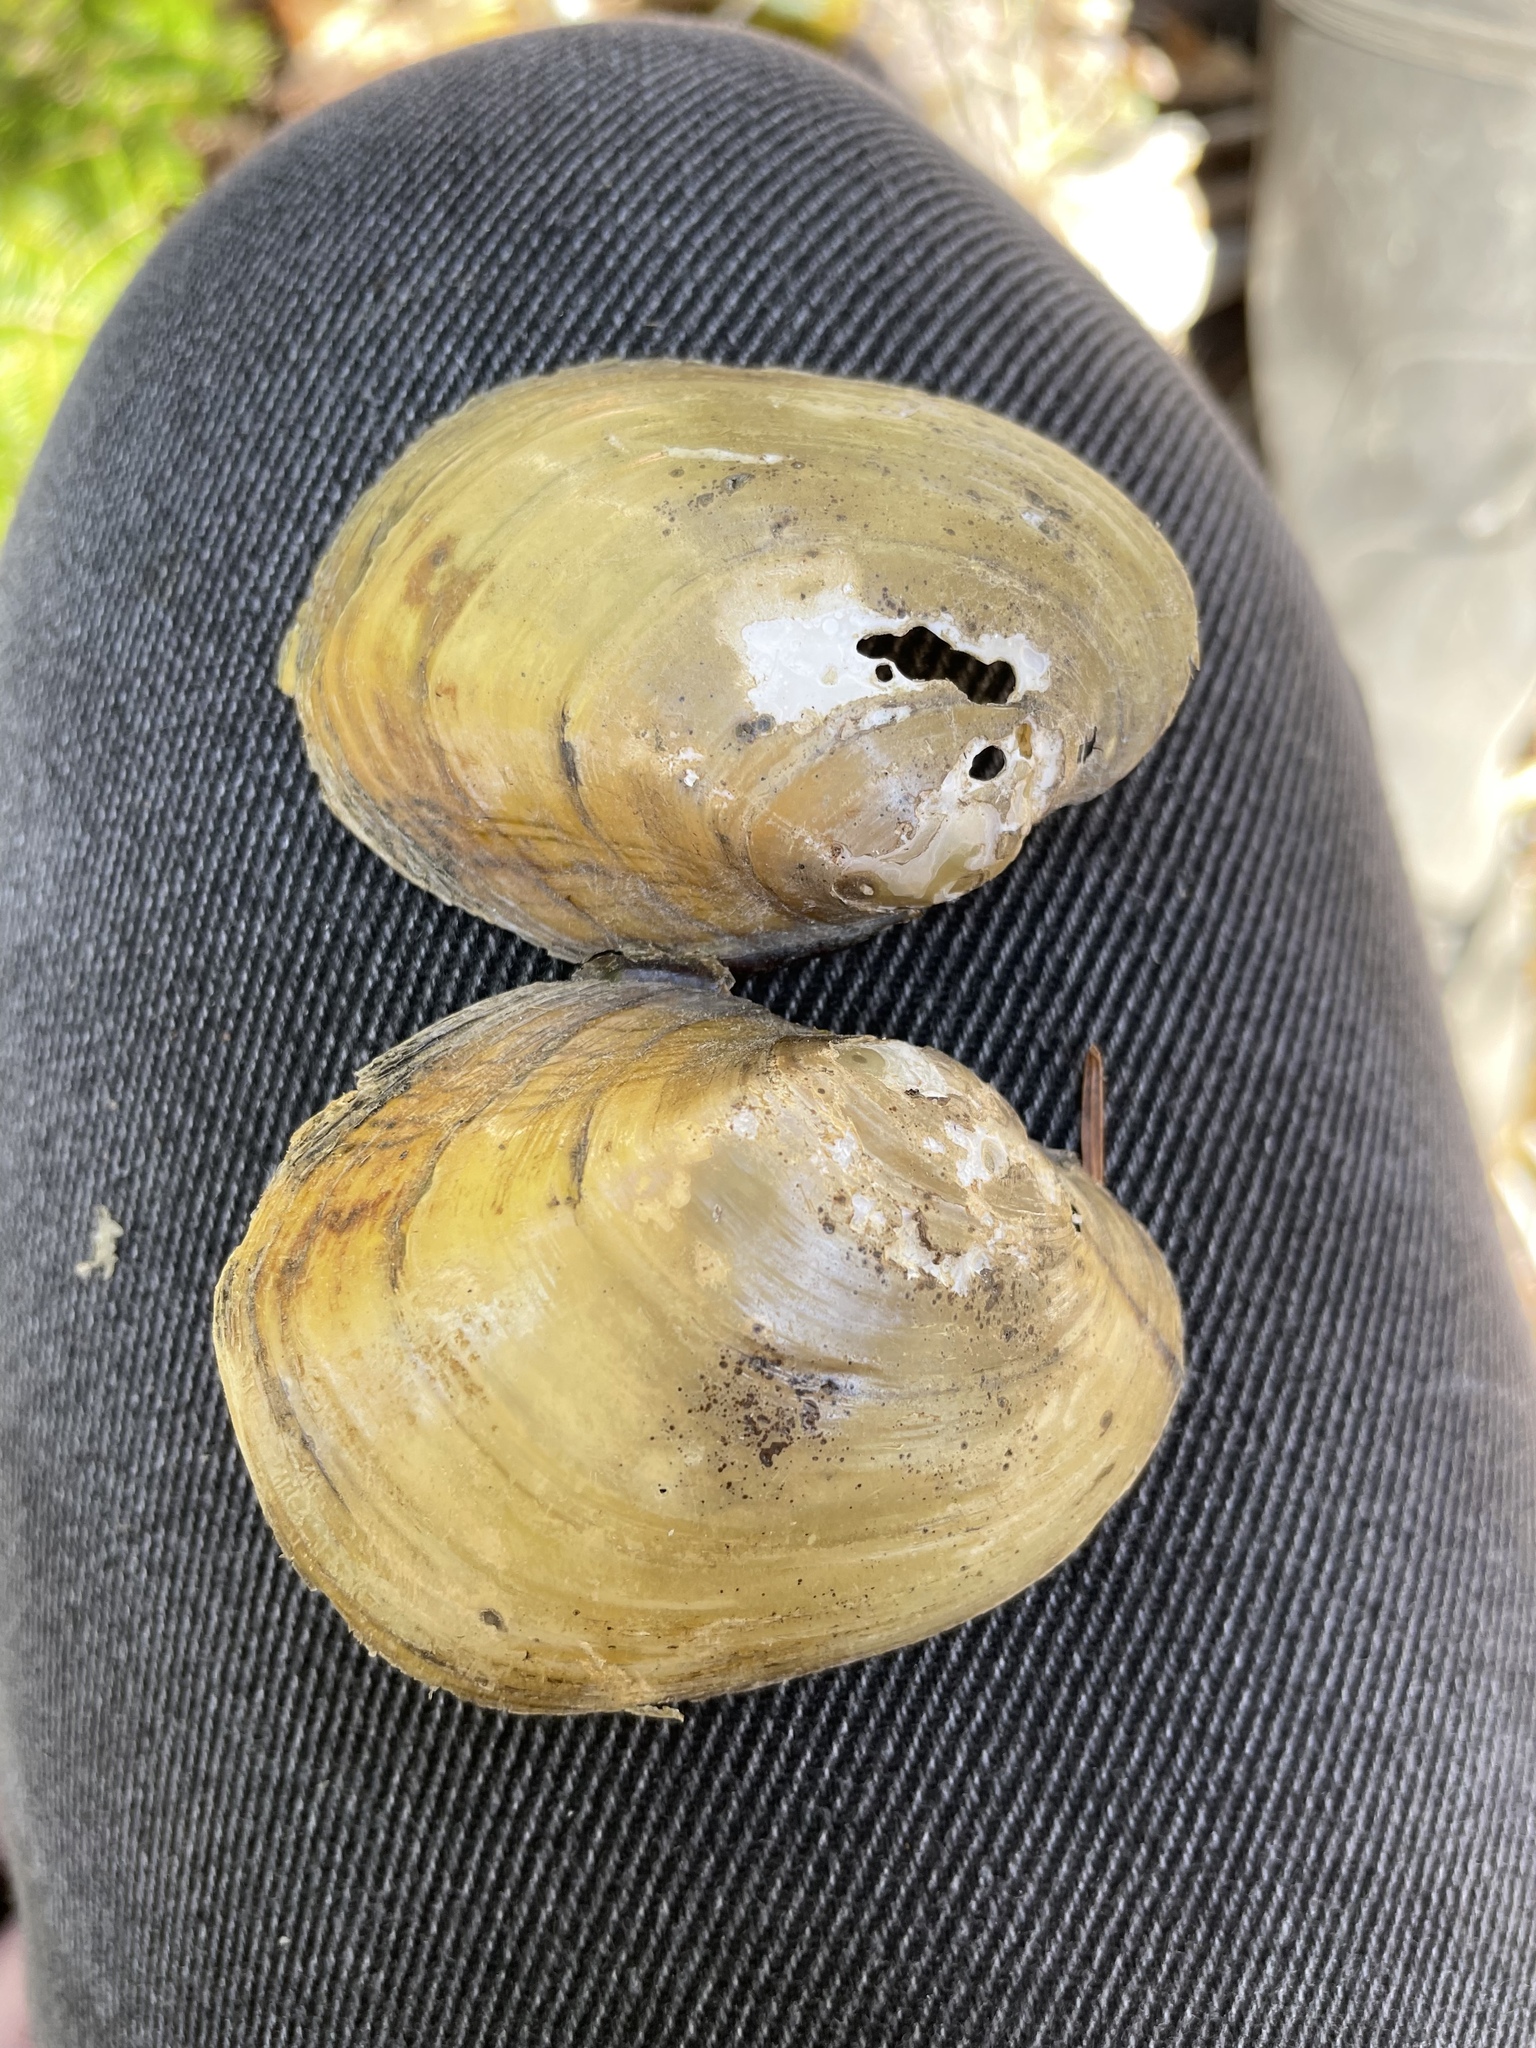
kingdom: Animalia
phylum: Mollusca
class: Bivalvia
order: Unionida
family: Unionidae
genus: Lampsilis
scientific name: Lampsilis cariosa
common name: Yellow lampmussel
